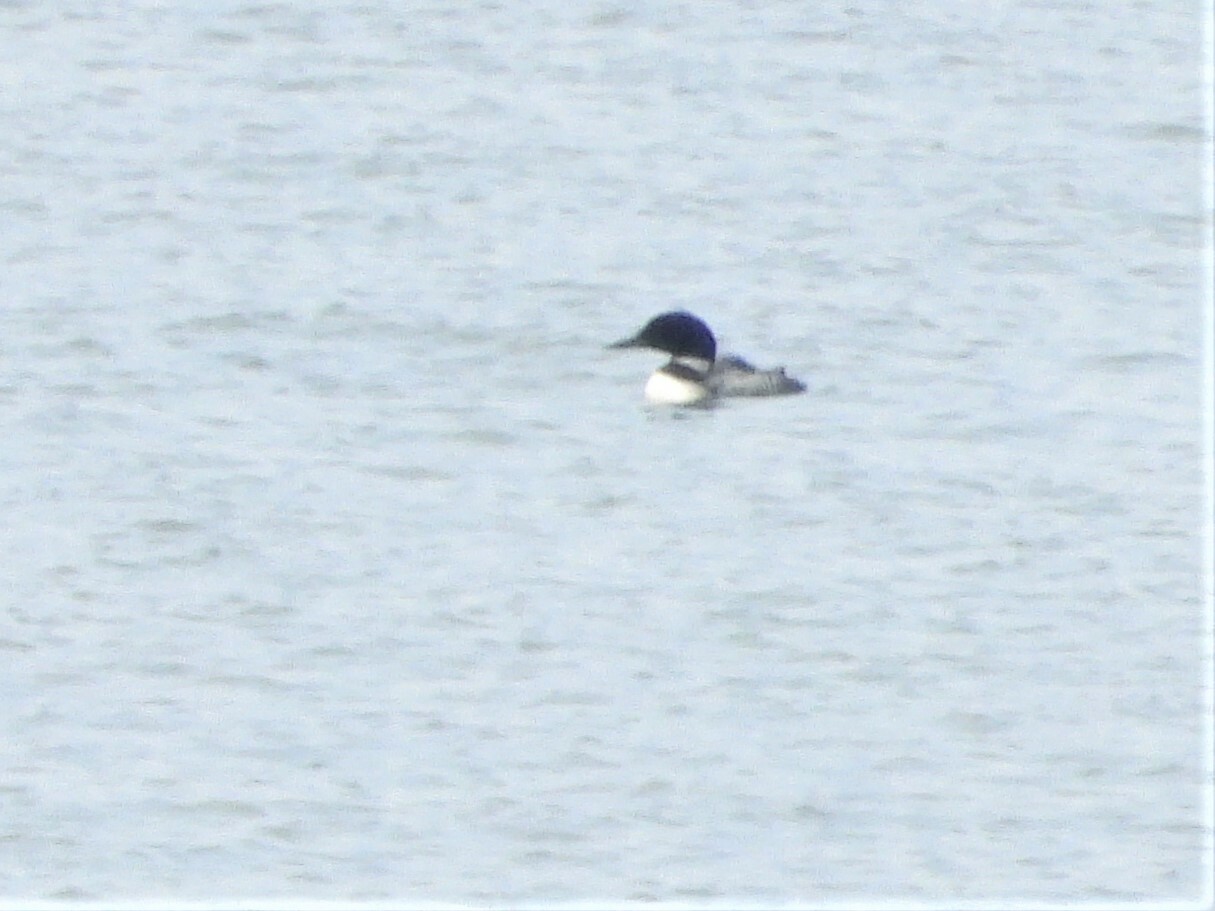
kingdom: Animalia
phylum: Chordata
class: Aves
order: Gaviiformes
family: Gaviidae
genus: Gavia
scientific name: Gavia immer
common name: Common loon
